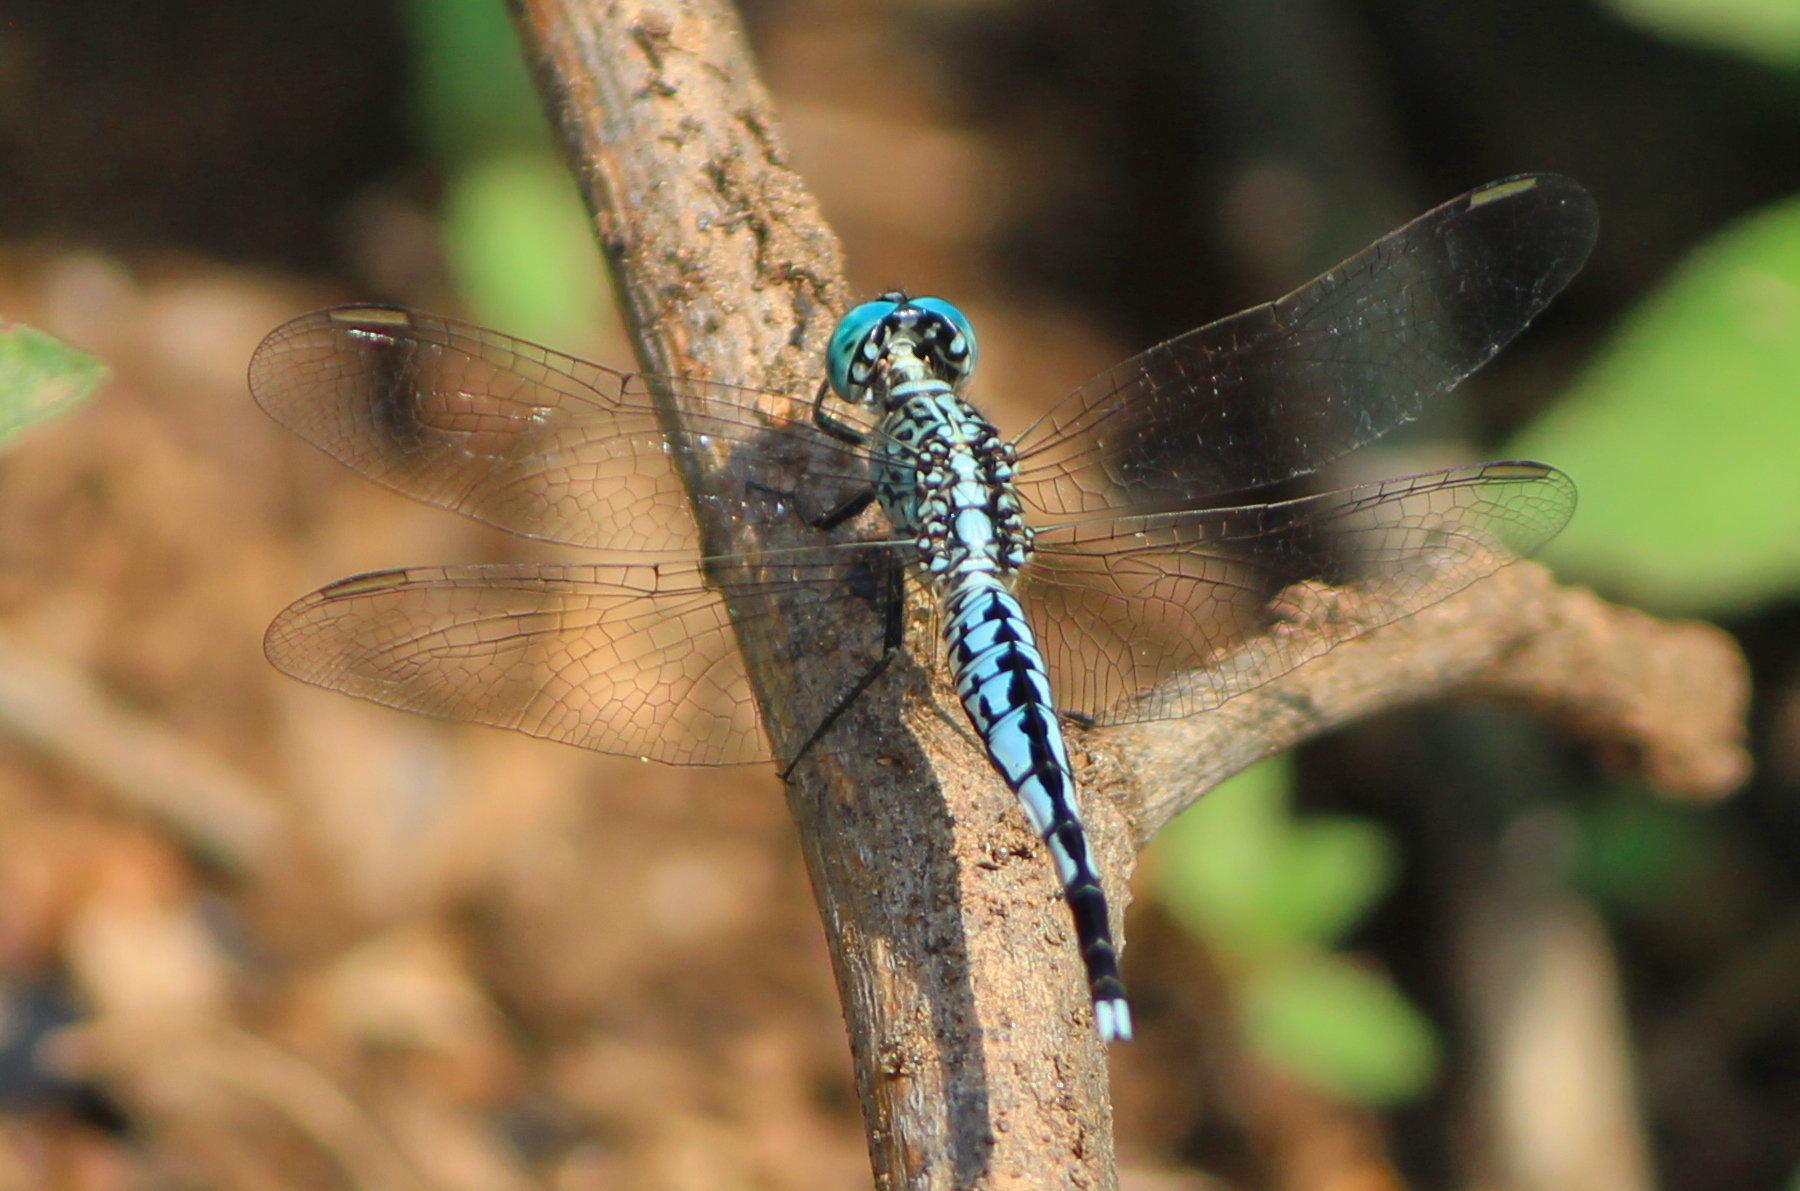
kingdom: Animalia
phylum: Arthropoda
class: Insecta
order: Odonata
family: Libellulidae
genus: Acisoma
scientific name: Acisoma panorpoides
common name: Asian pintail
